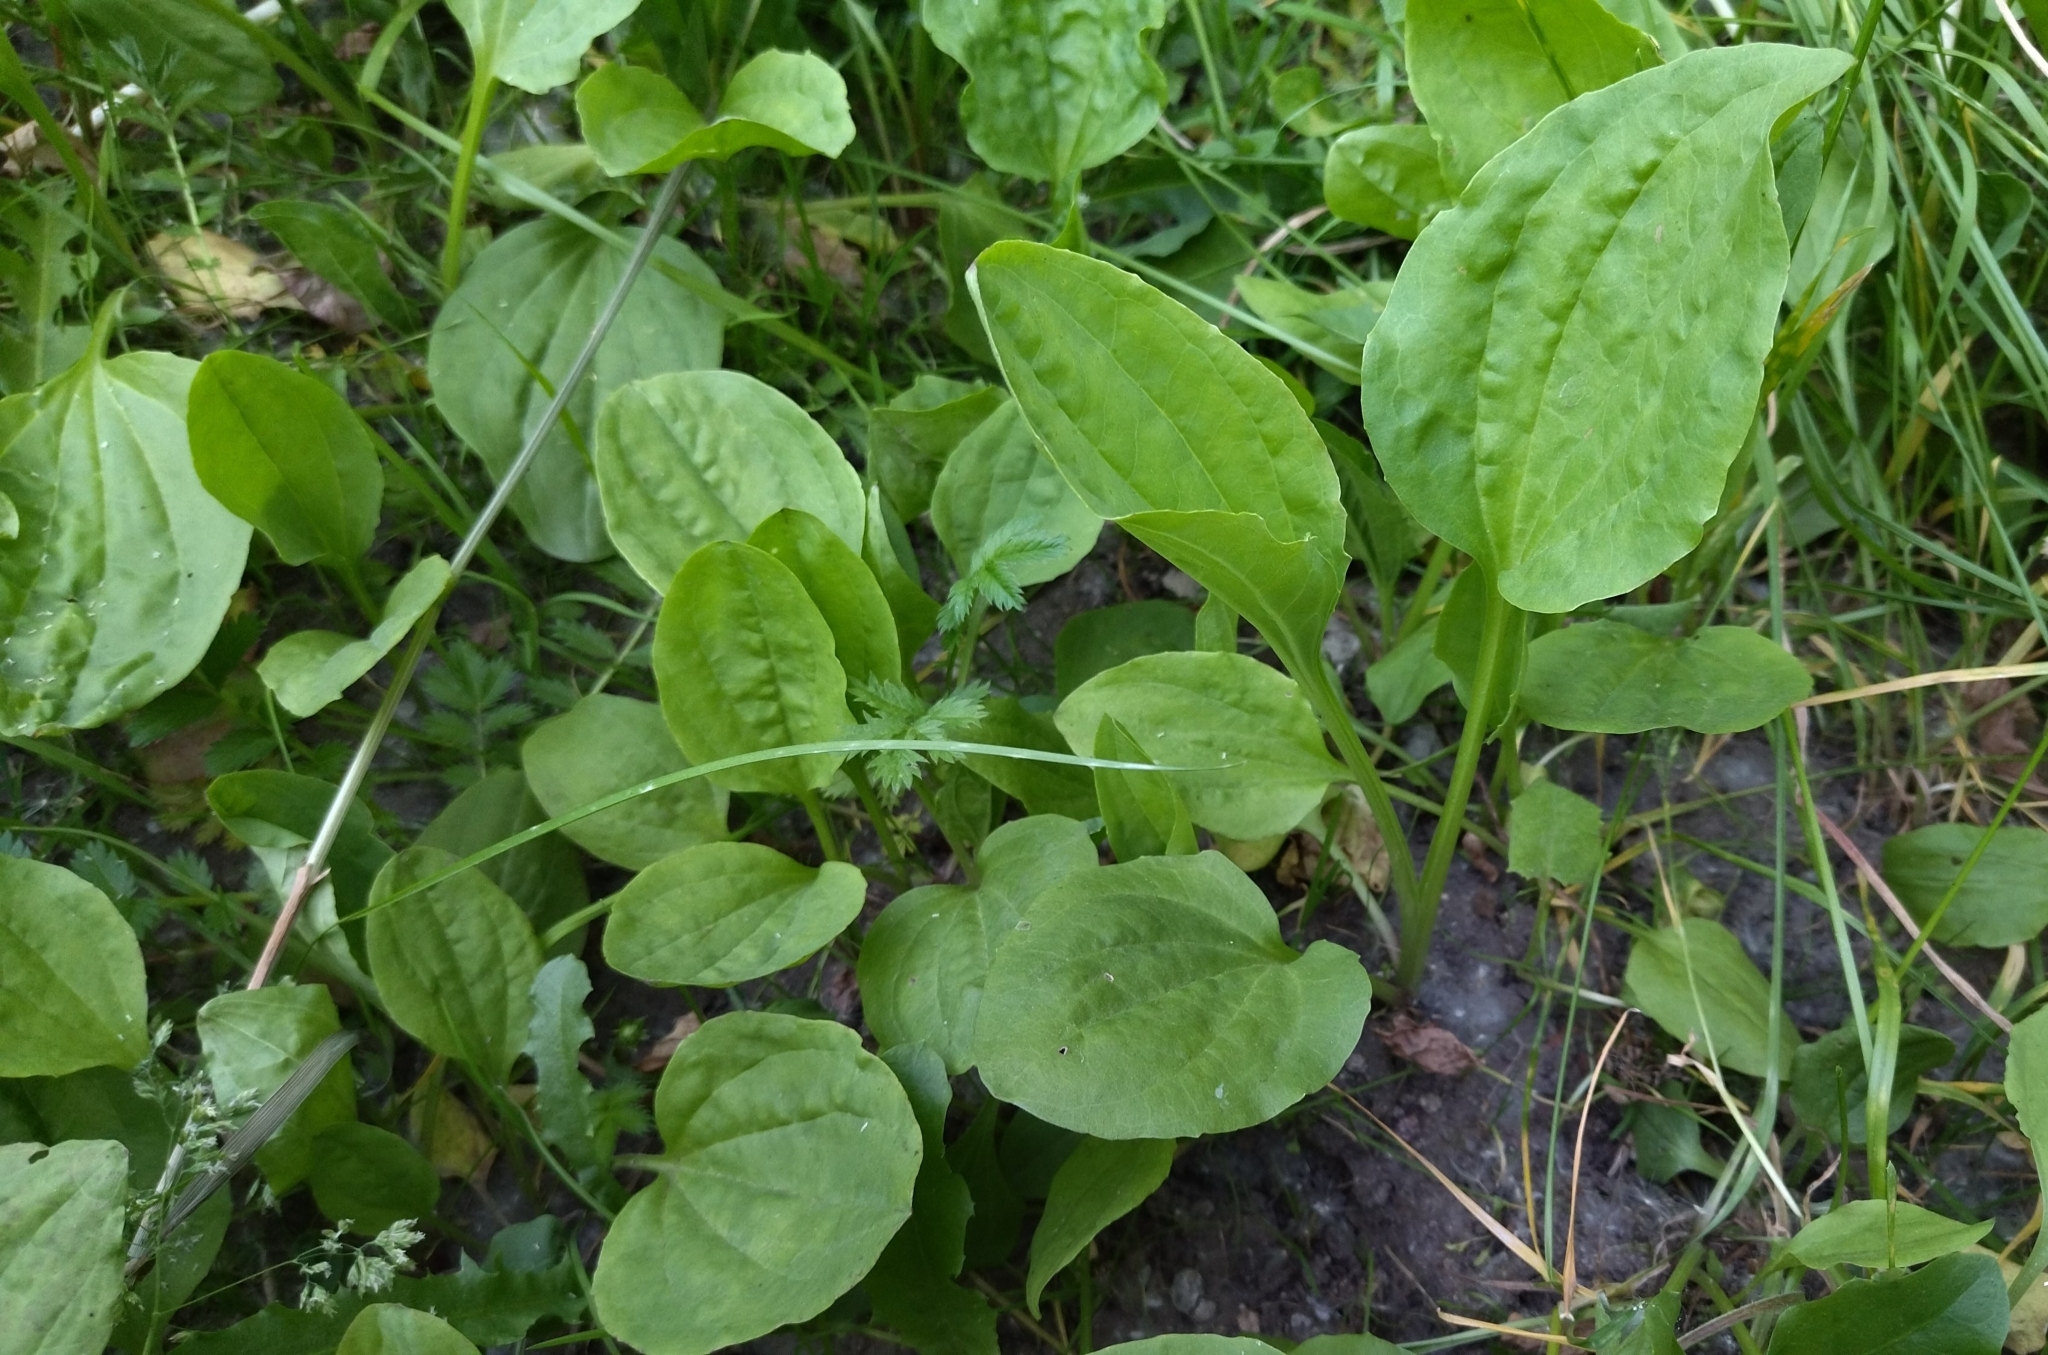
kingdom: Plantae
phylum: Tracheophyta
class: Magnoliopsida
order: Lamiales
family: Plantaginaceae
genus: Plantago
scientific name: Plantago major
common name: Common plantain
